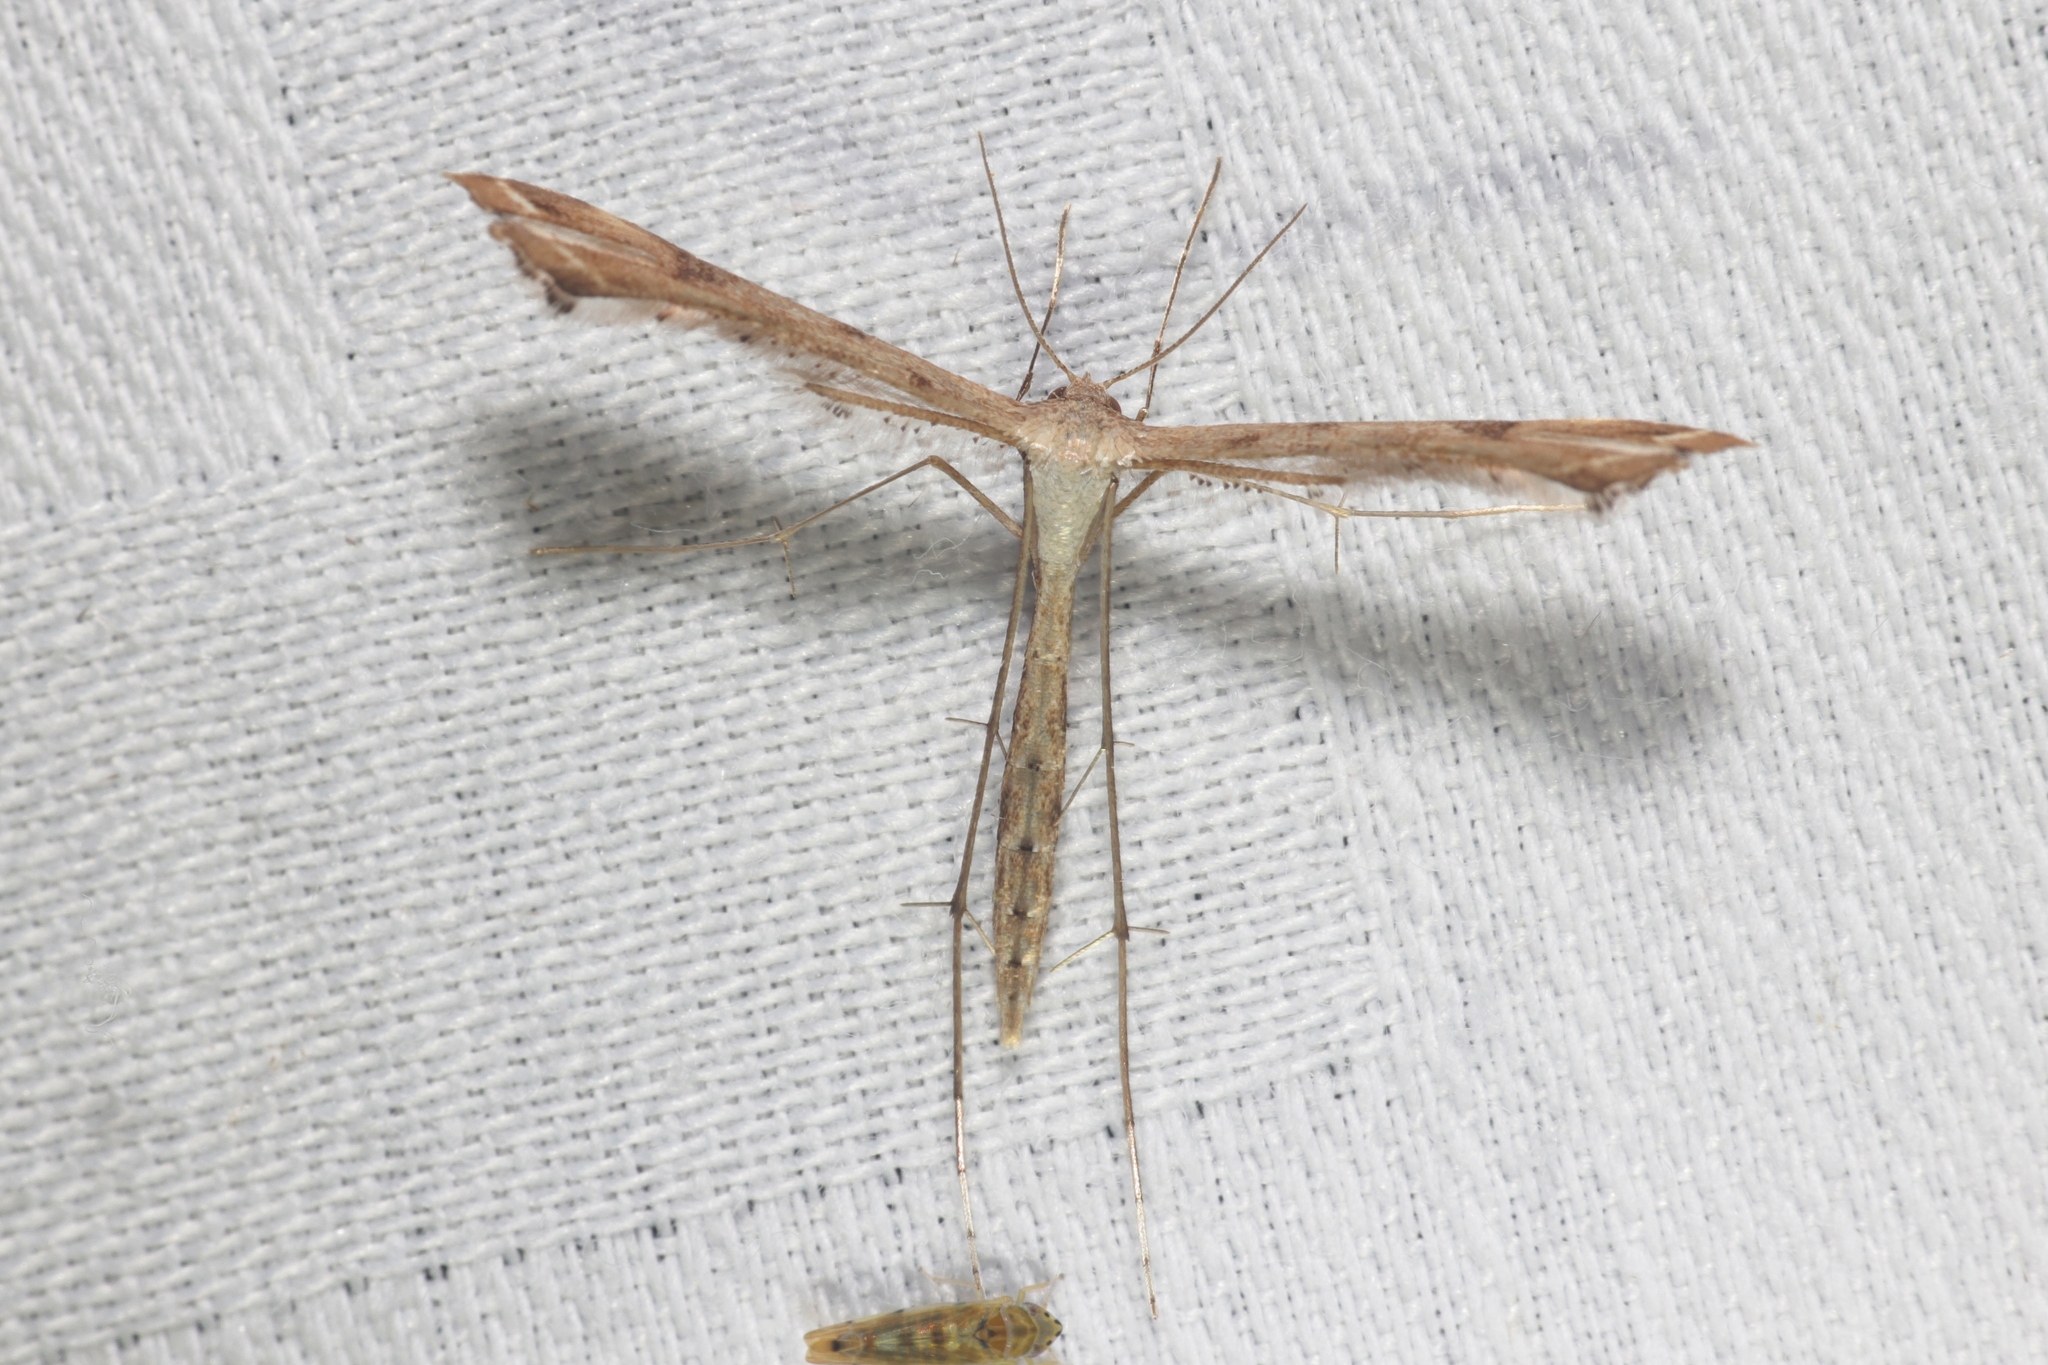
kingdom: Animalia
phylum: Arthropoda
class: Insecta
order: Lepidoptera
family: Pterophoridae
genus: Stenoptilodes
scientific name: Stenoptilodes taprobanes
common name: Moth
